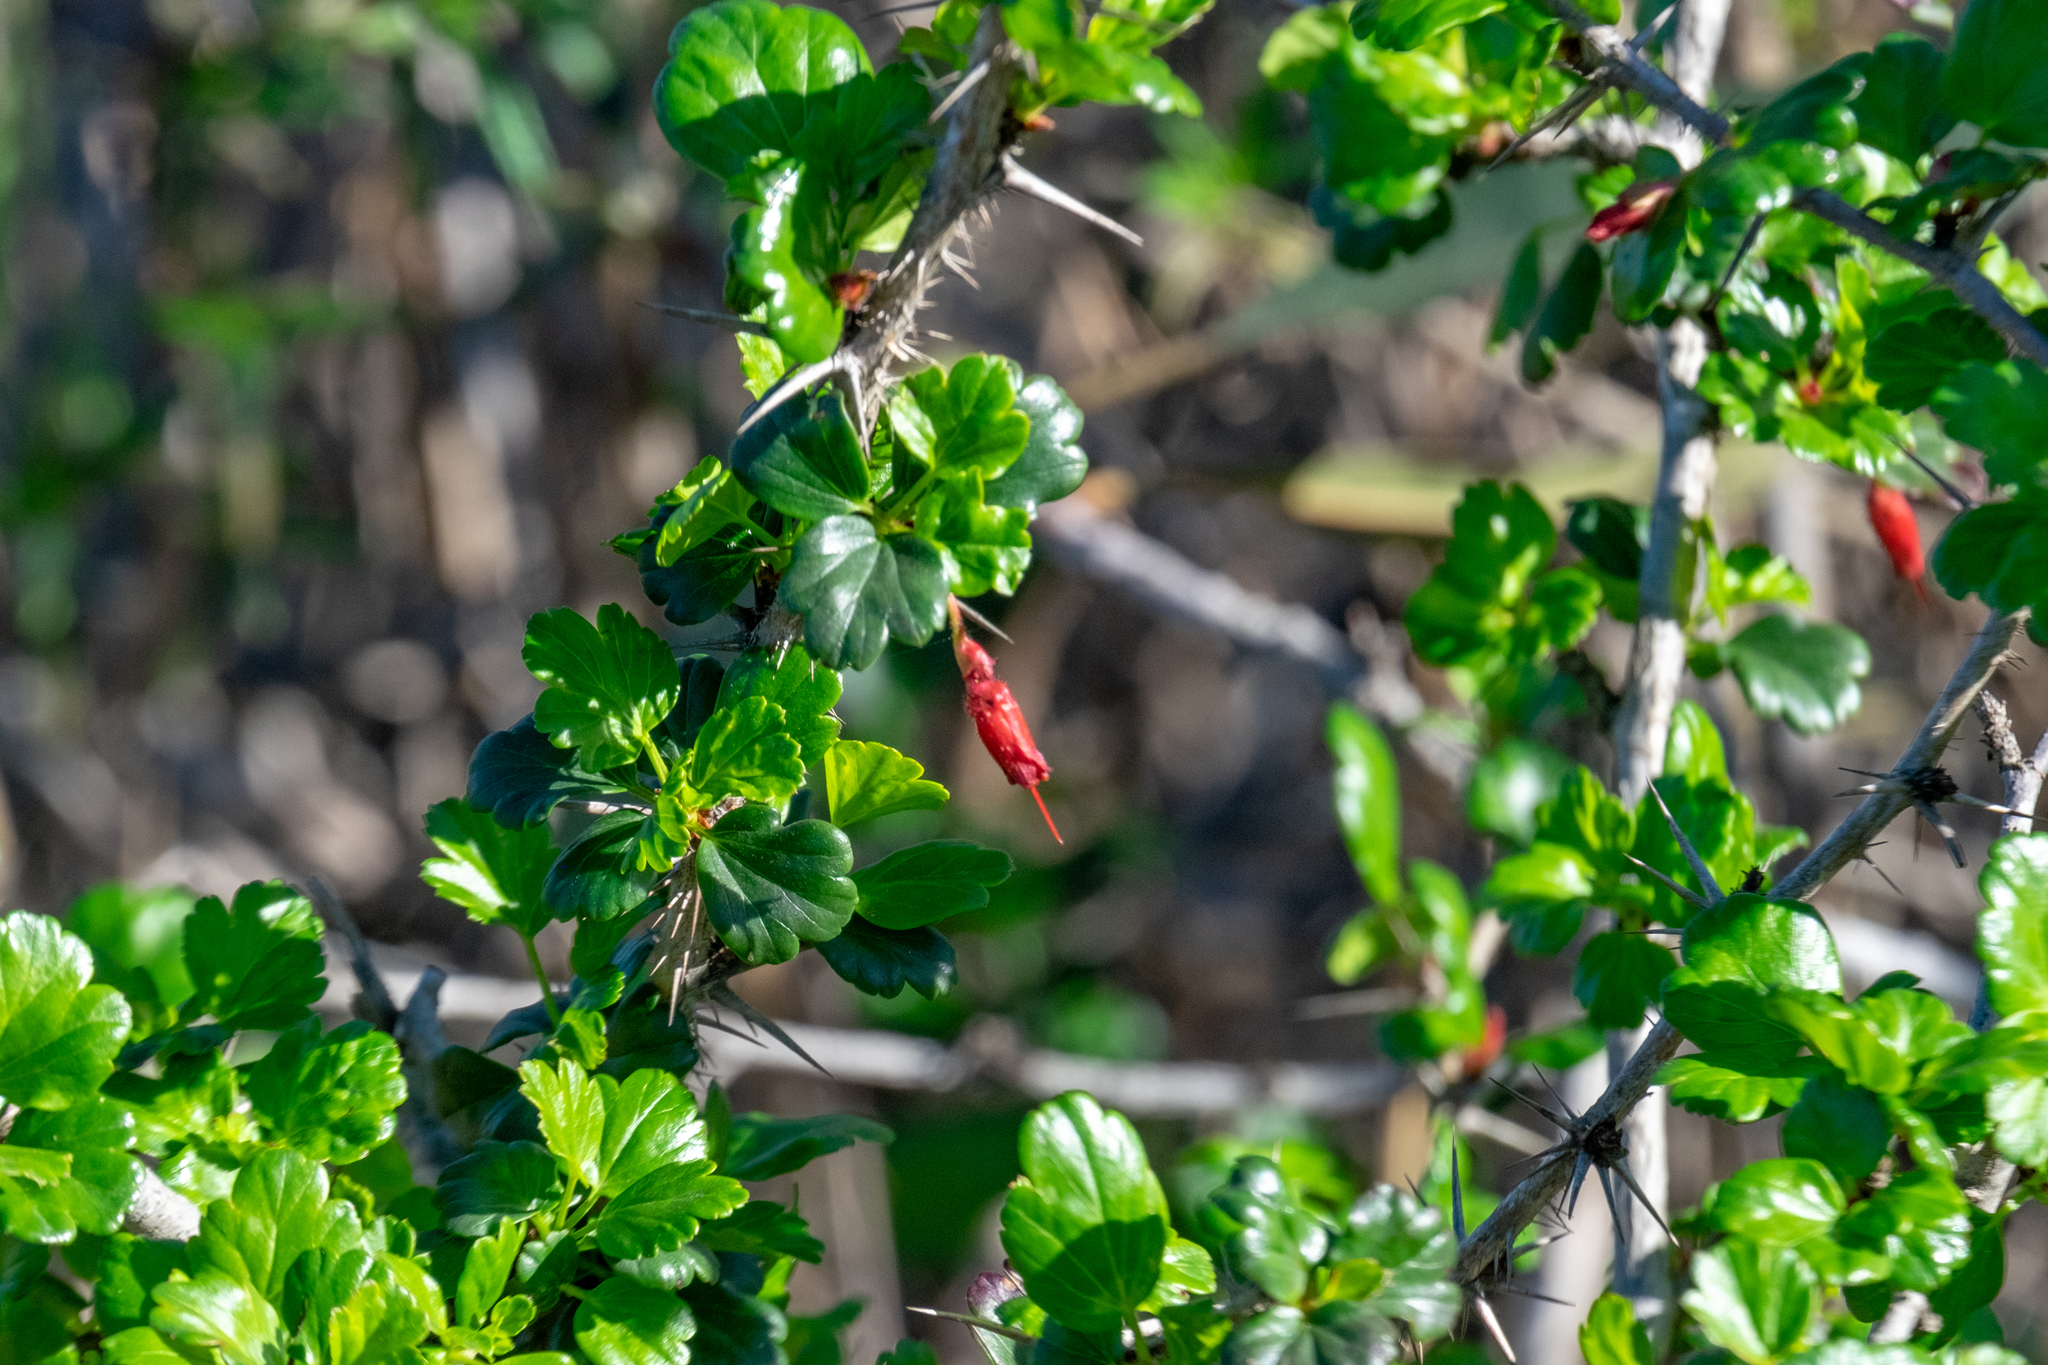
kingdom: Plantae
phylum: Tracheophyta
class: Magnoliopsida
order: Saxifragales
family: Grossulariaceae
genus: Ribes
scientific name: Ribes speciosum
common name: Fuchsia-flower gooseberry
